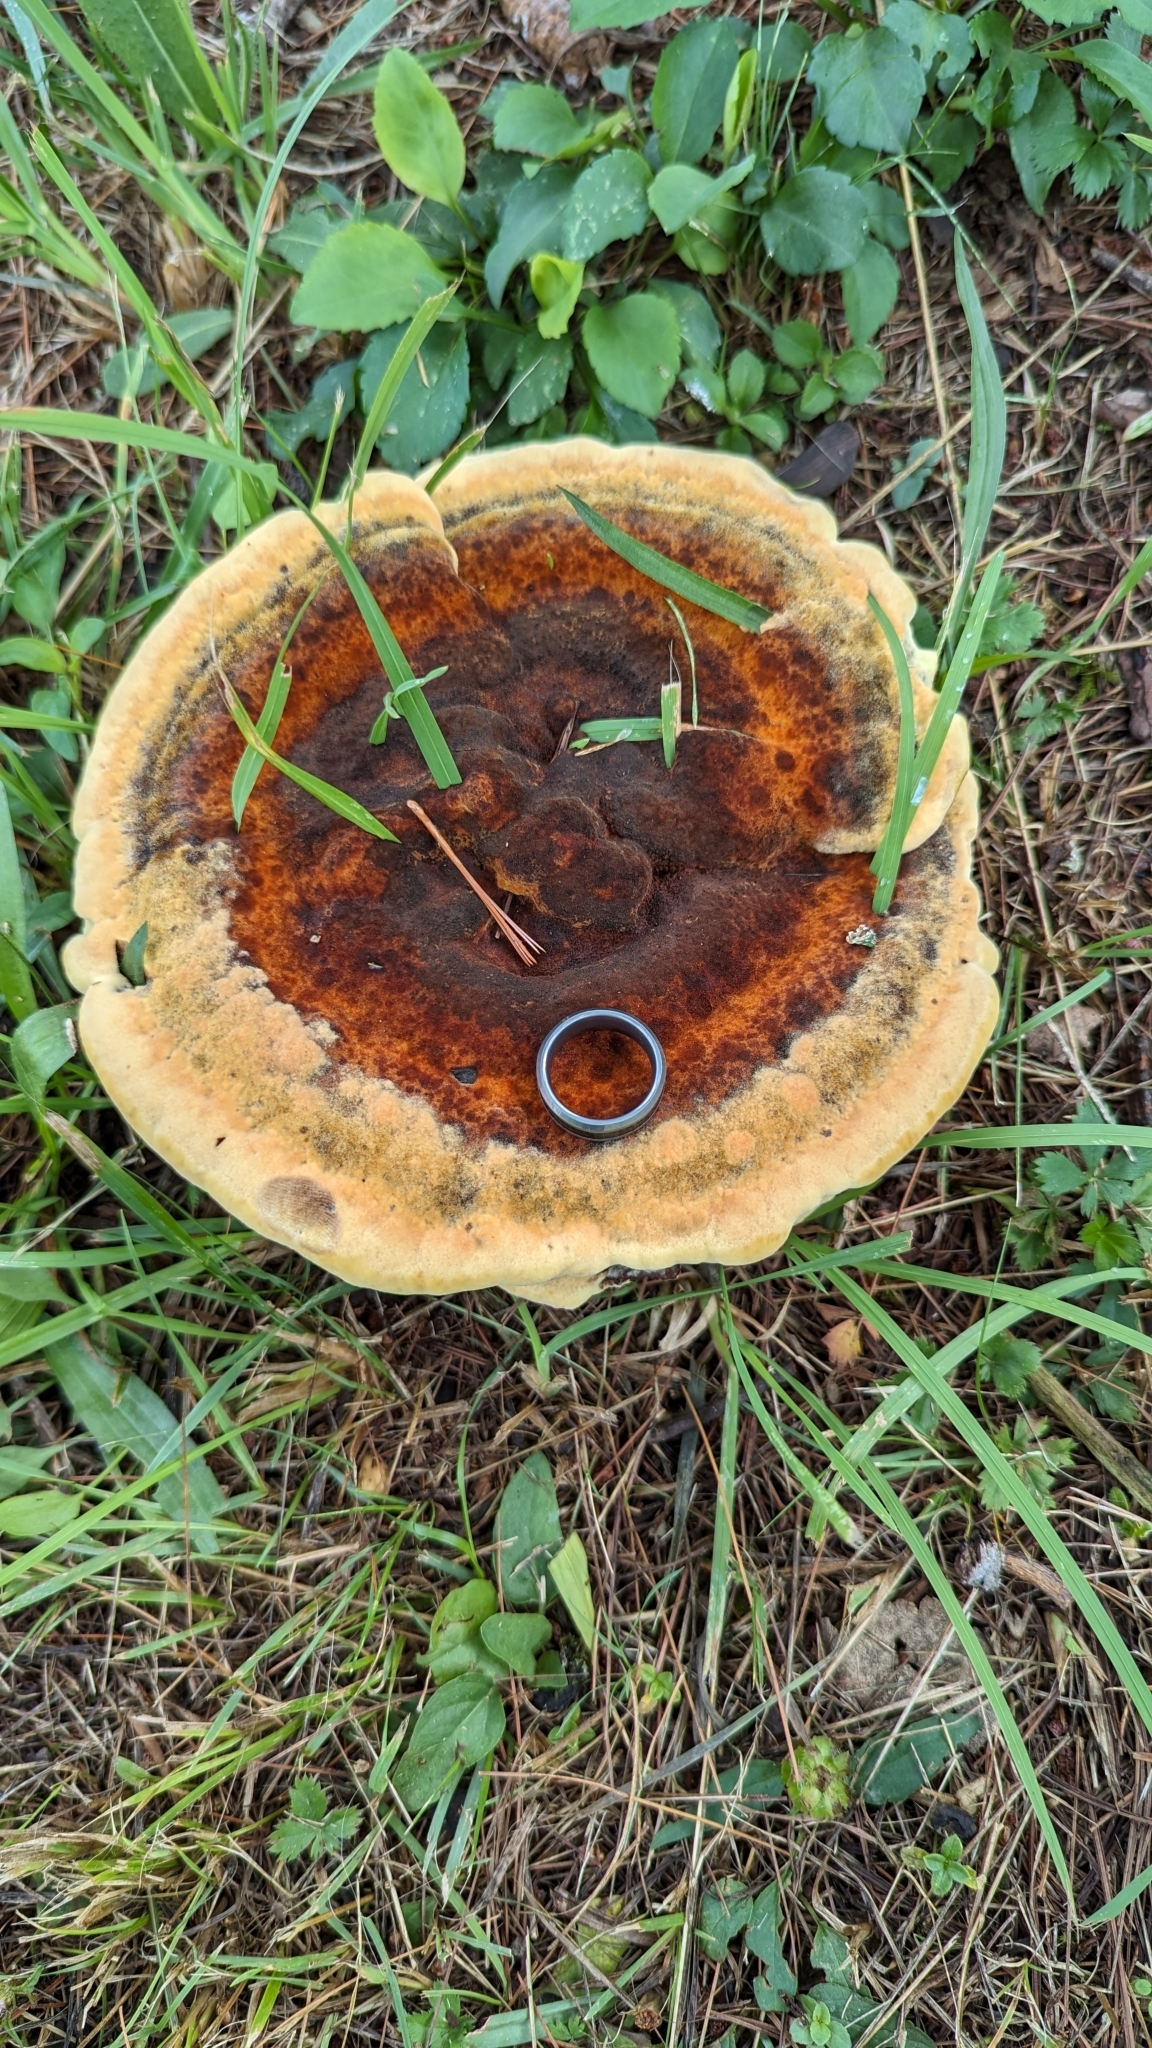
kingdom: Fungi
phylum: Basidiomycota
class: Agaricomycetes
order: Polyporales
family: Laetiporaceae
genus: Phaeolus
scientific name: Phaeolus schweinitzii
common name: Dyer's mazegill
